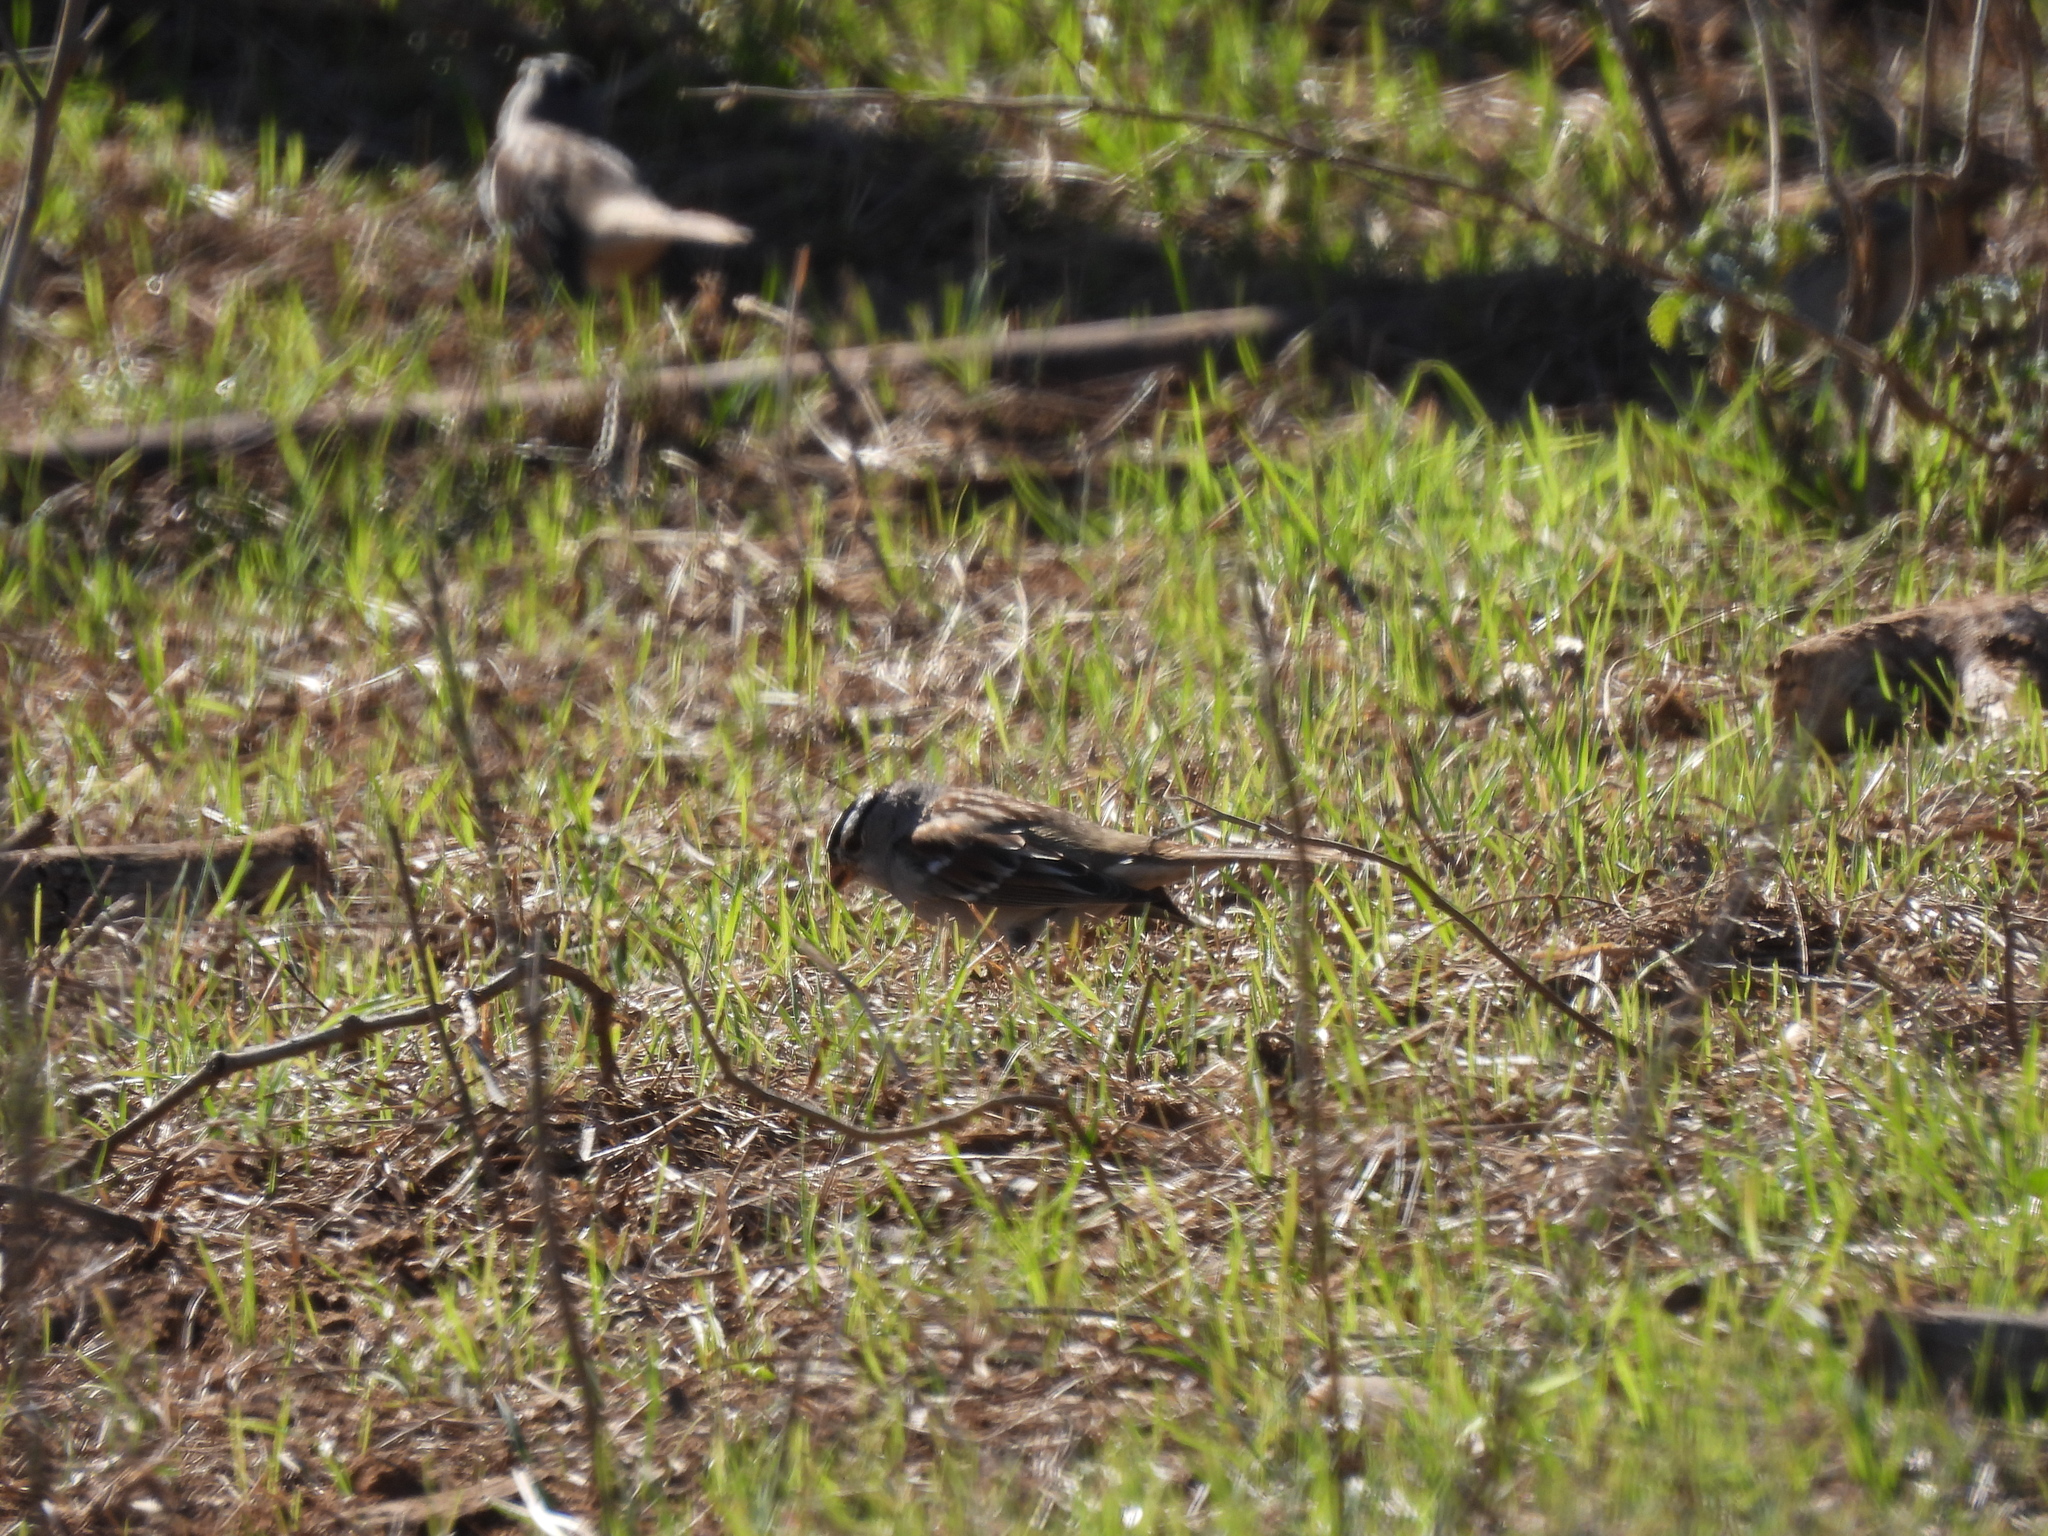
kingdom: Animalia
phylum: Chordata
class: Aves
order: Passeriformes
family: Passerellidae
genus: Zonotrichia
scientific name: Zonotrichia leucophrys
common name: White-crowned sparrow
